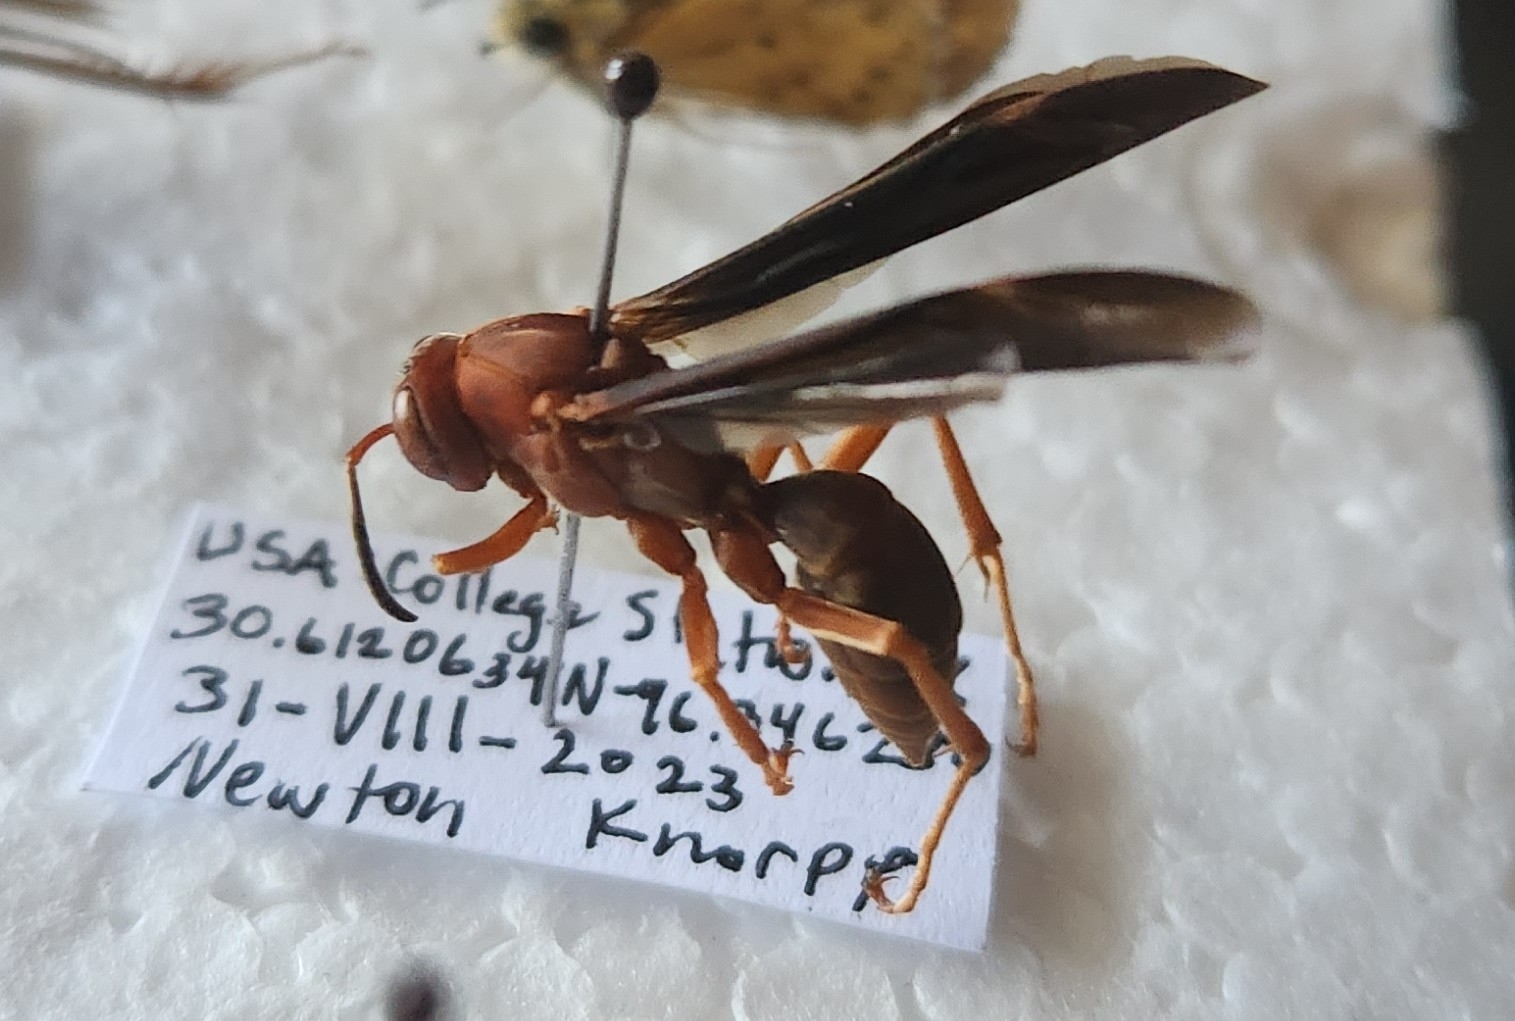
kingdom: Animalia
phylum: Arthropoda
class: Insecta
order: Hymenoptera
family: Eumenidae
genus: Polistes
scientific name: Polistes metricus
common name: Metric paper wasp
